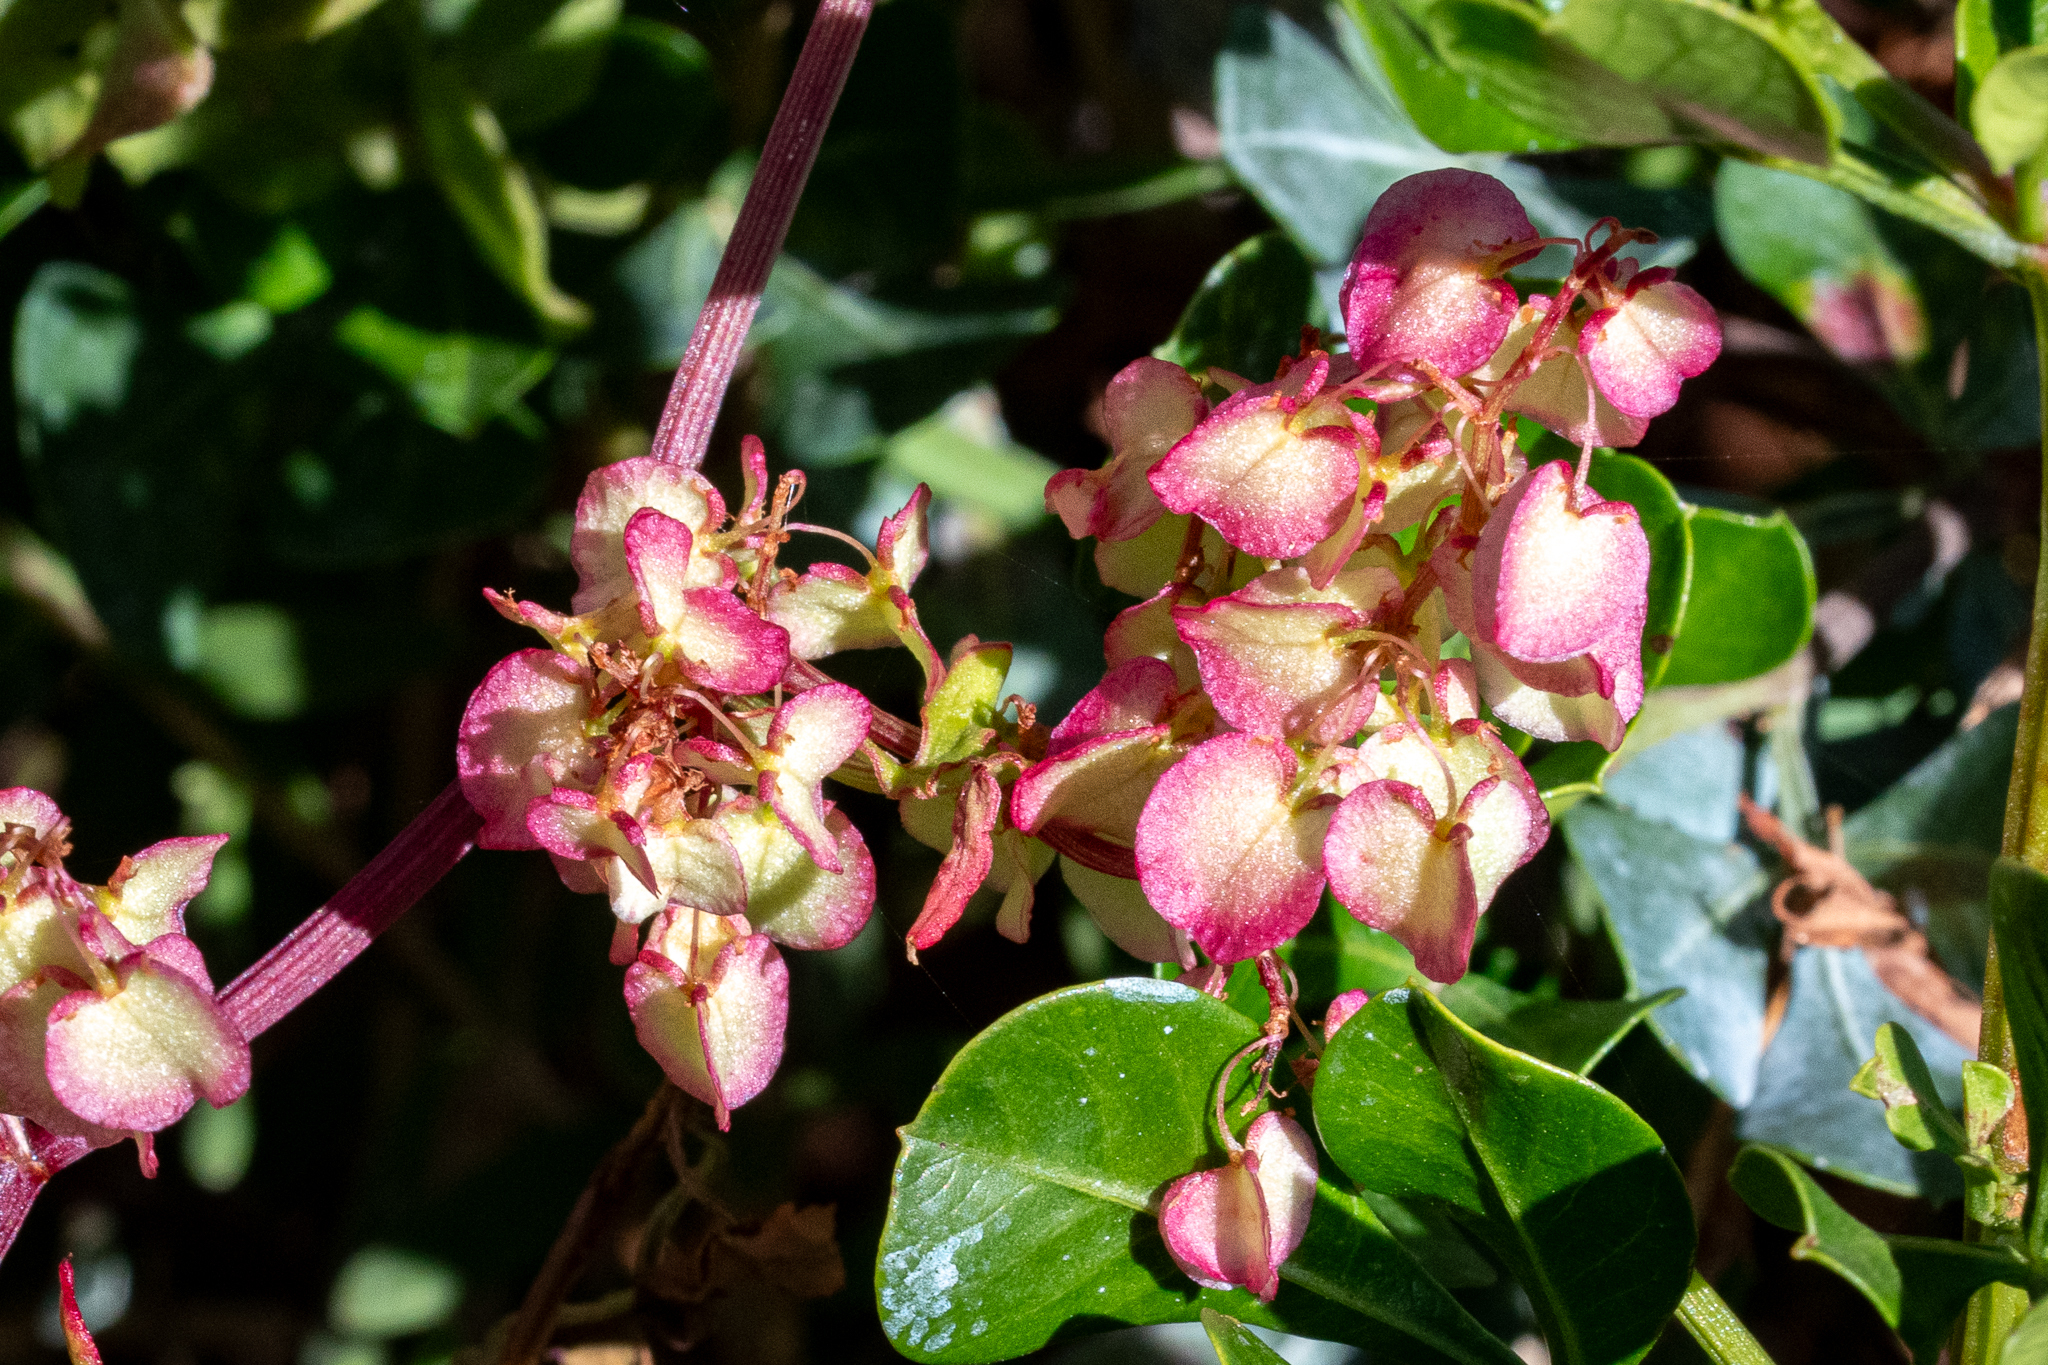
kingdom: Plantae
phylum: Tracheophyta
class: Magnoliopsida
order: Caryophyllales
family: Polygonaceae
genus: Rumex
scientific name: Rumex sagittatus
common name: Climbing dock
